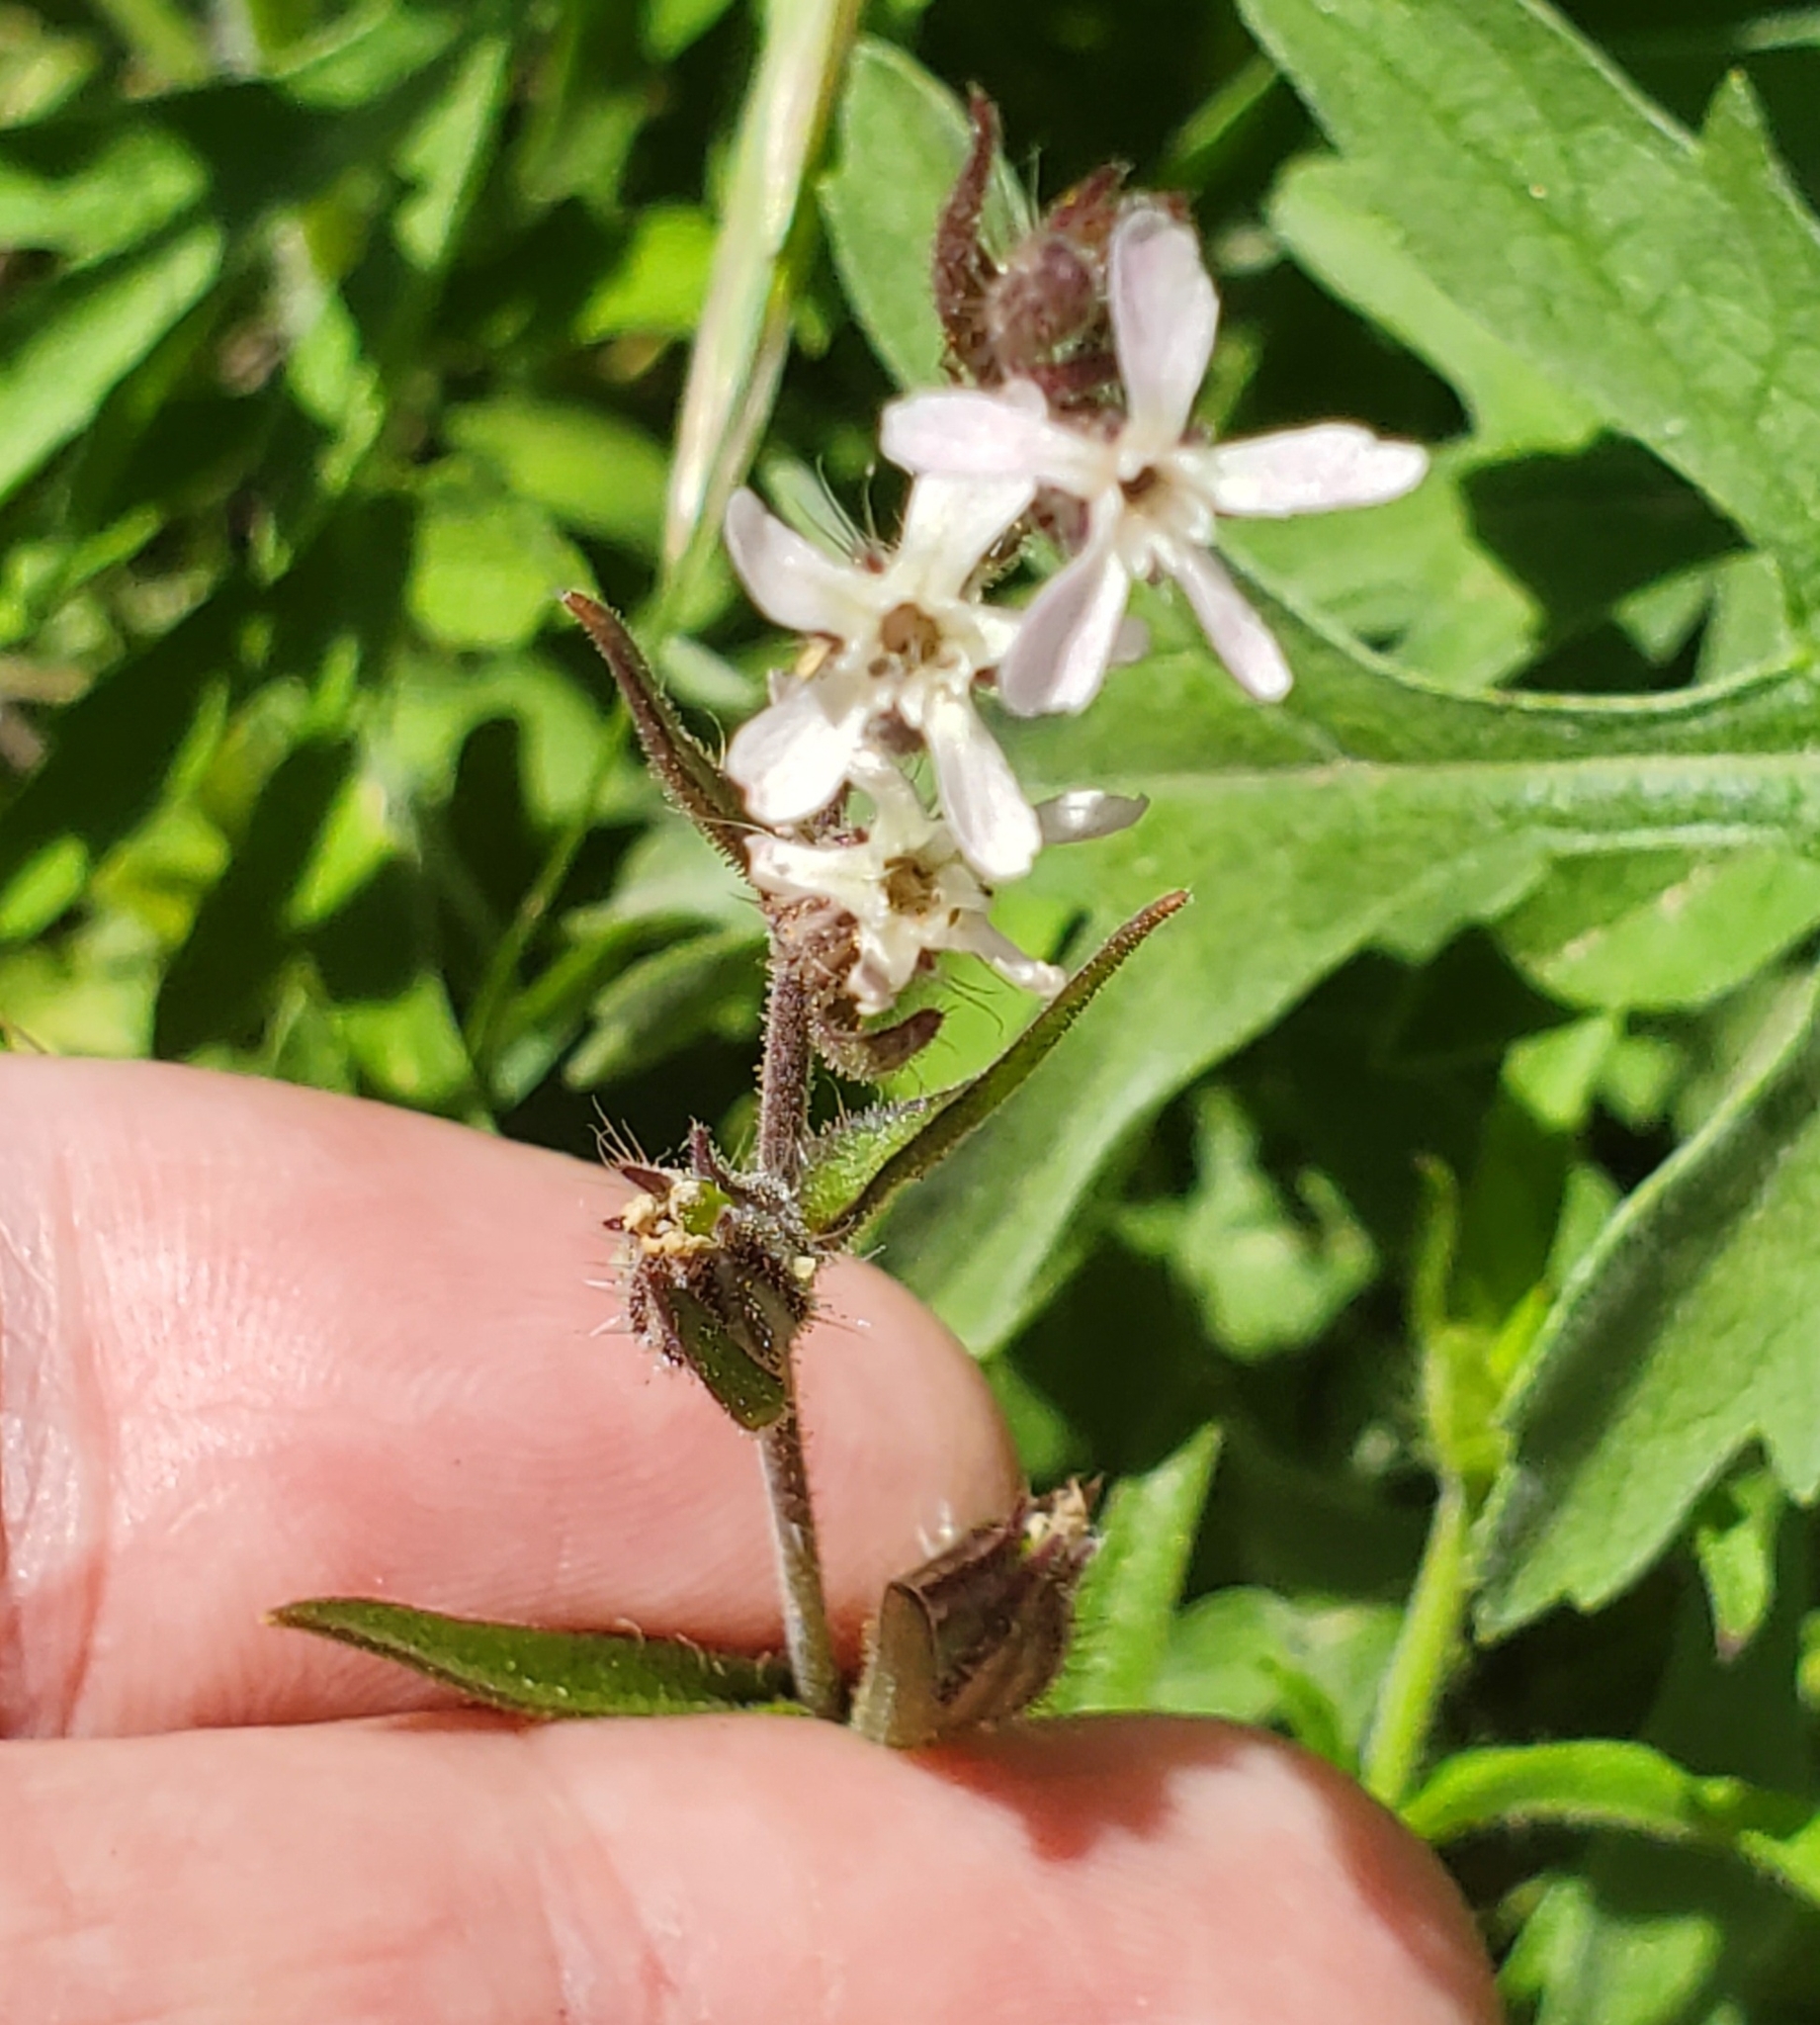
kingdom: Plantae
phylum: Tracheophyta
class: Magnoliopsida
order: Caryophyllales
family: Caryophyllaceae
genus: Silene
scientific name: Silene gallica
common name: Small-flowered catchfly
